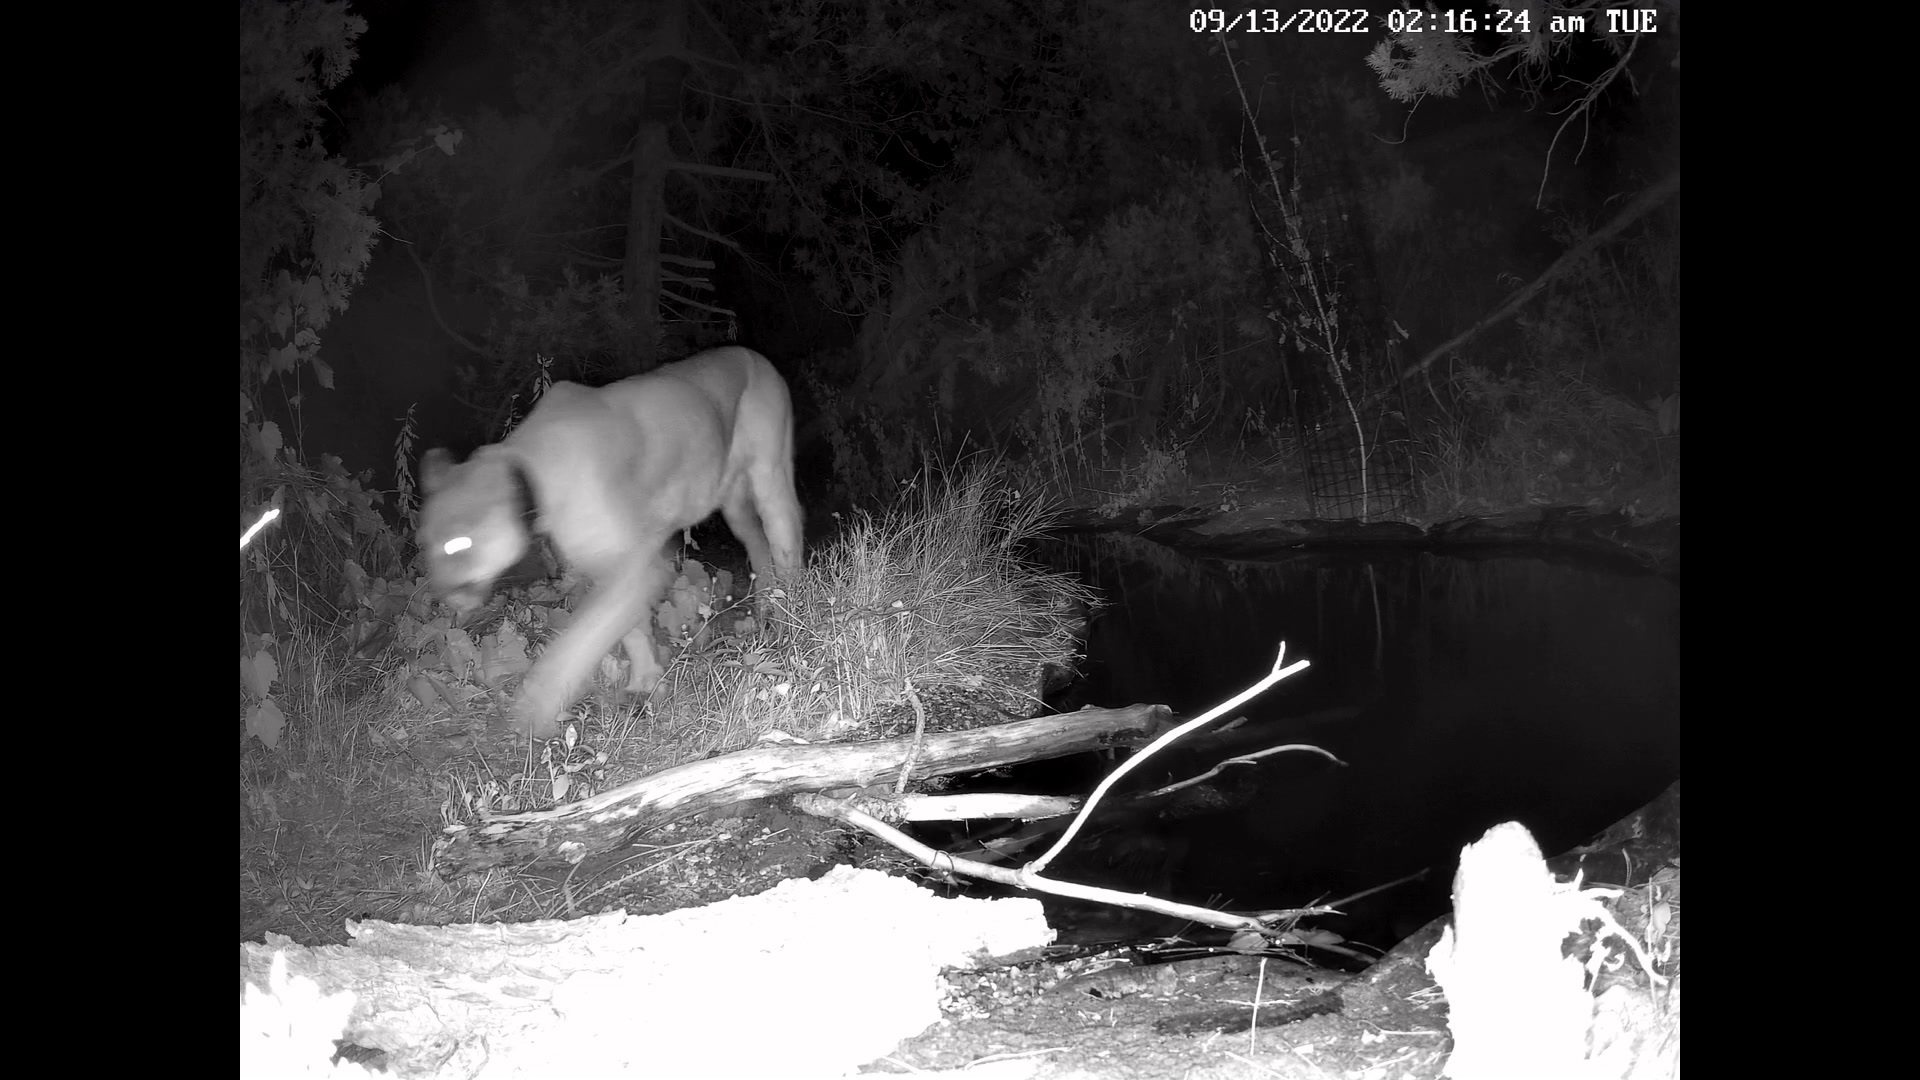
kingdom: Animalia
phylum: Chordata
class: Mammalia
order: Carnivora
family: Felidae
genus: Puma
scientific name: Puma concolor
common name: Puma
